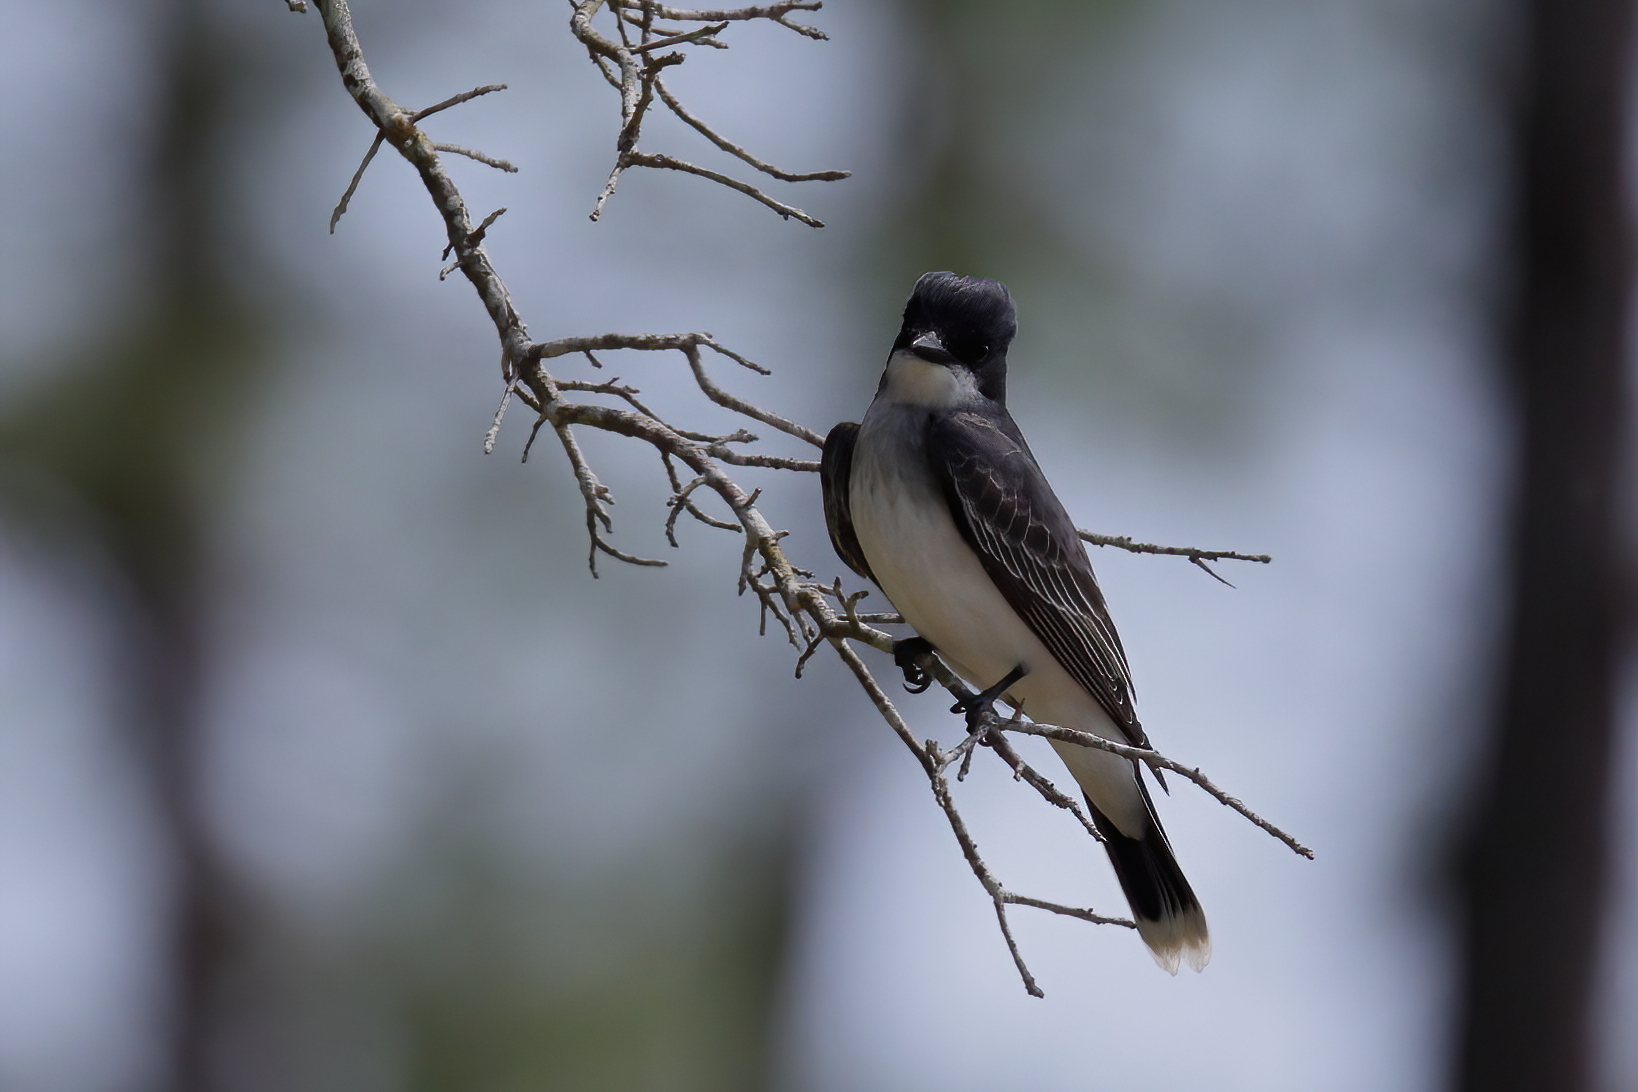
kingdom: Animalia
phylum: Chordata
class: Aves
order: Passeriformes
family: Tyrannidae
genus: Tyrannus
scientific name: Tyrannus tyrannus
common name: Eastern kingbird
